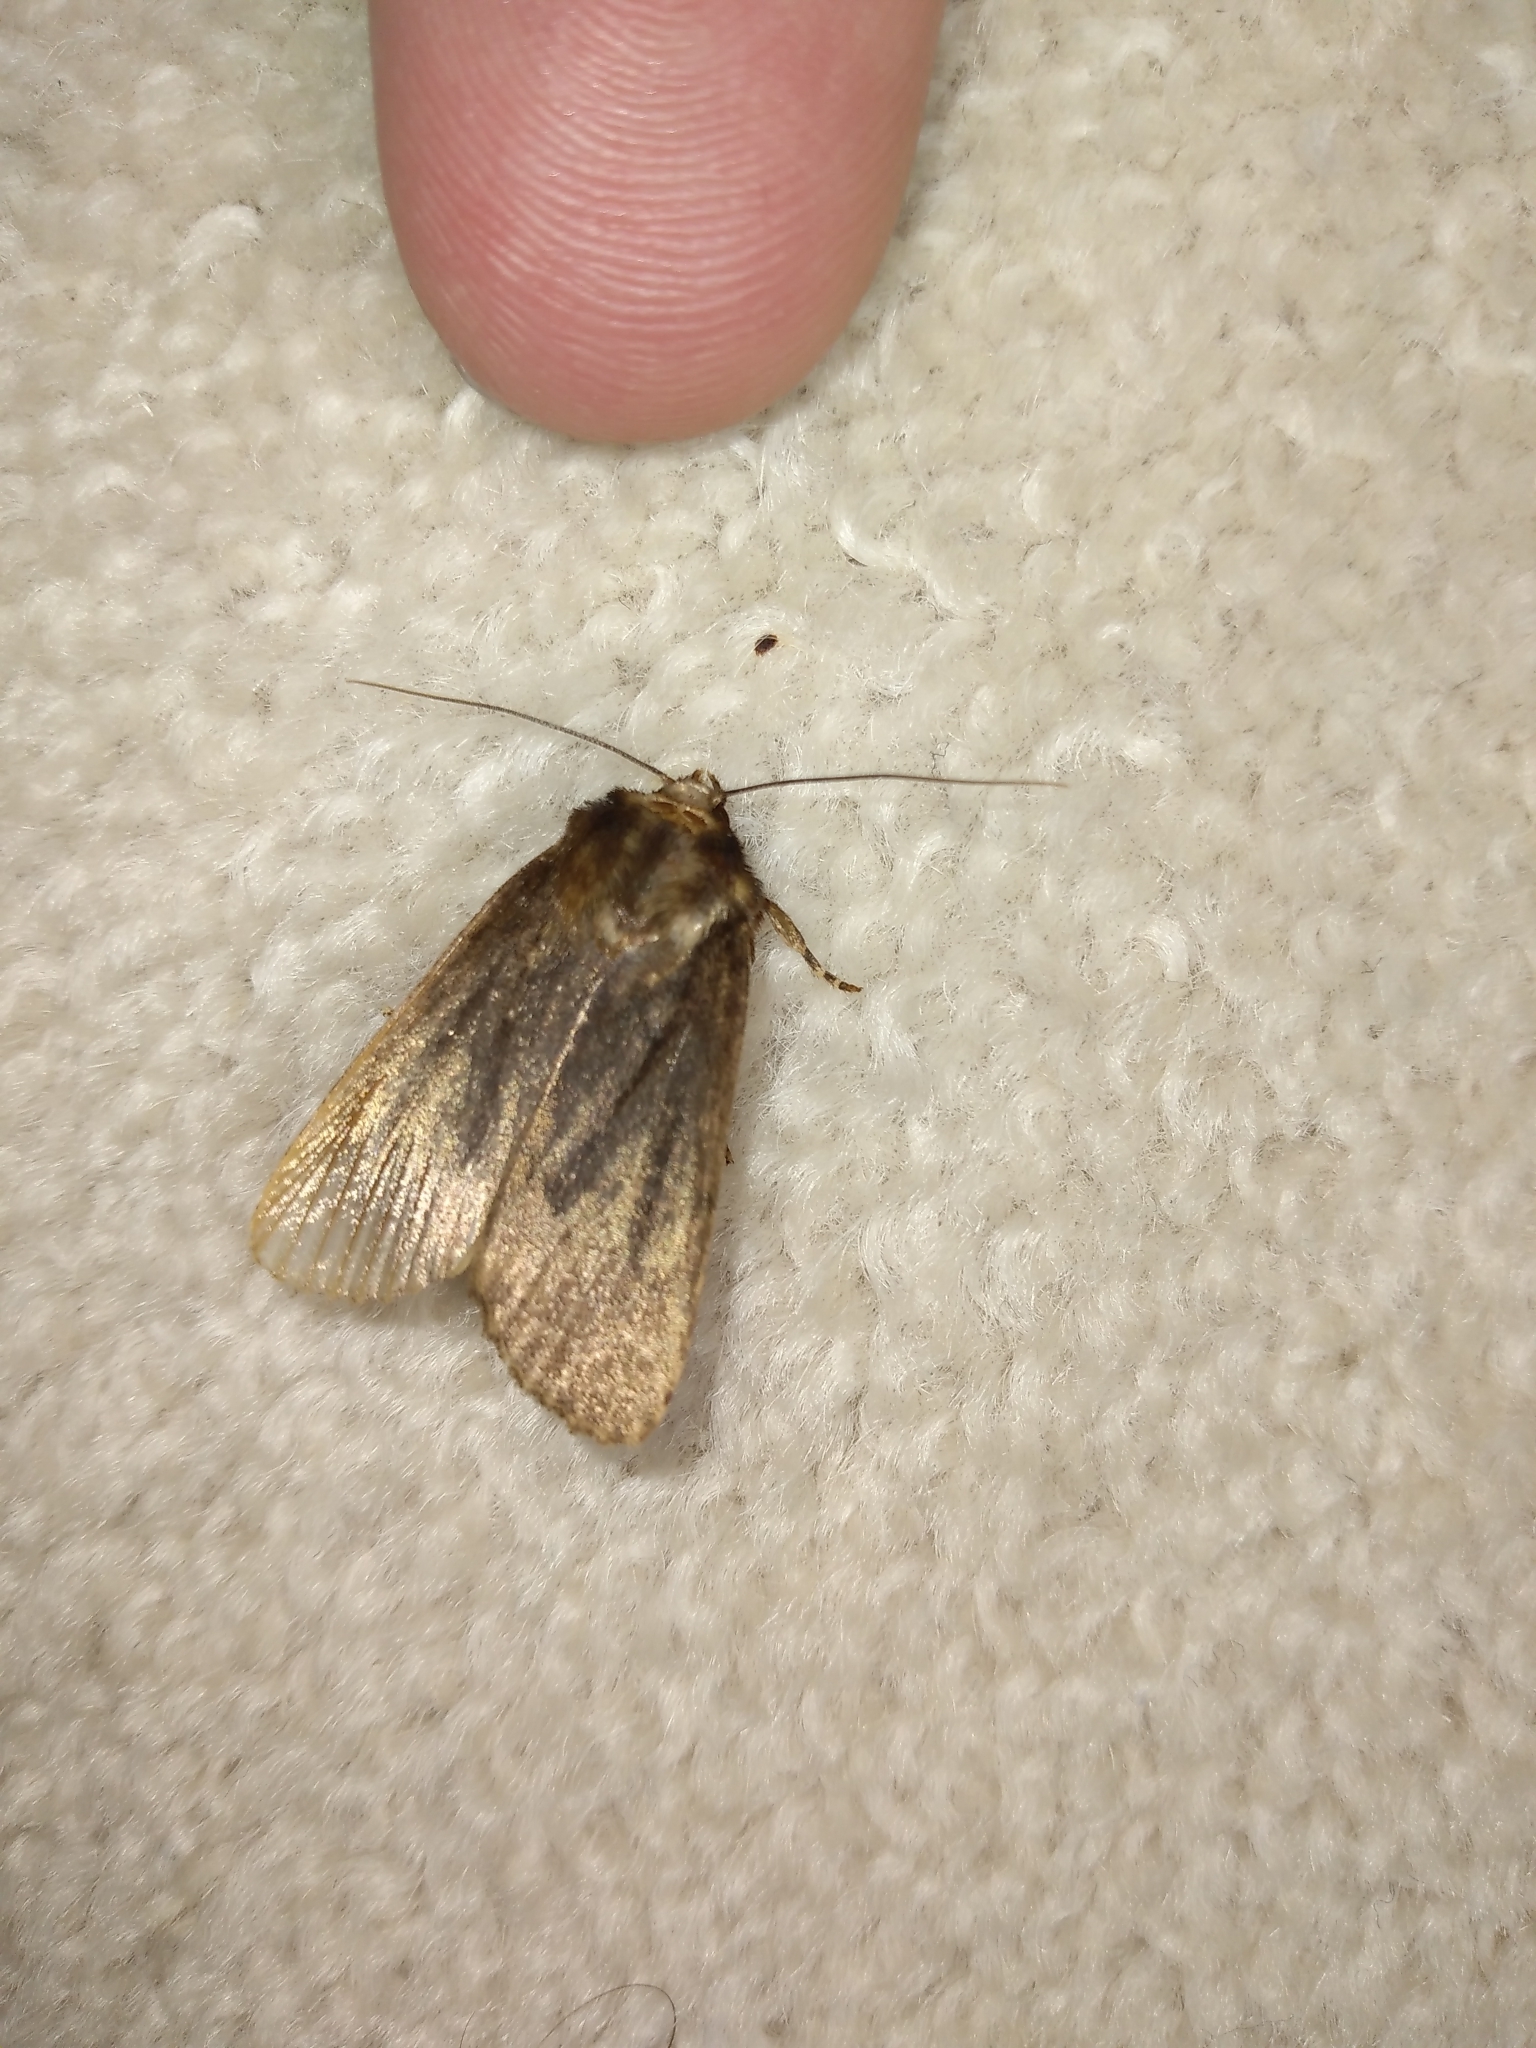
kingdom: Animalia
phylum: Arthropoda
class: Insecta
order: Lepidoptera
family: Noctuidae
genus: Bityla
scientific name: Bityla defigurata
